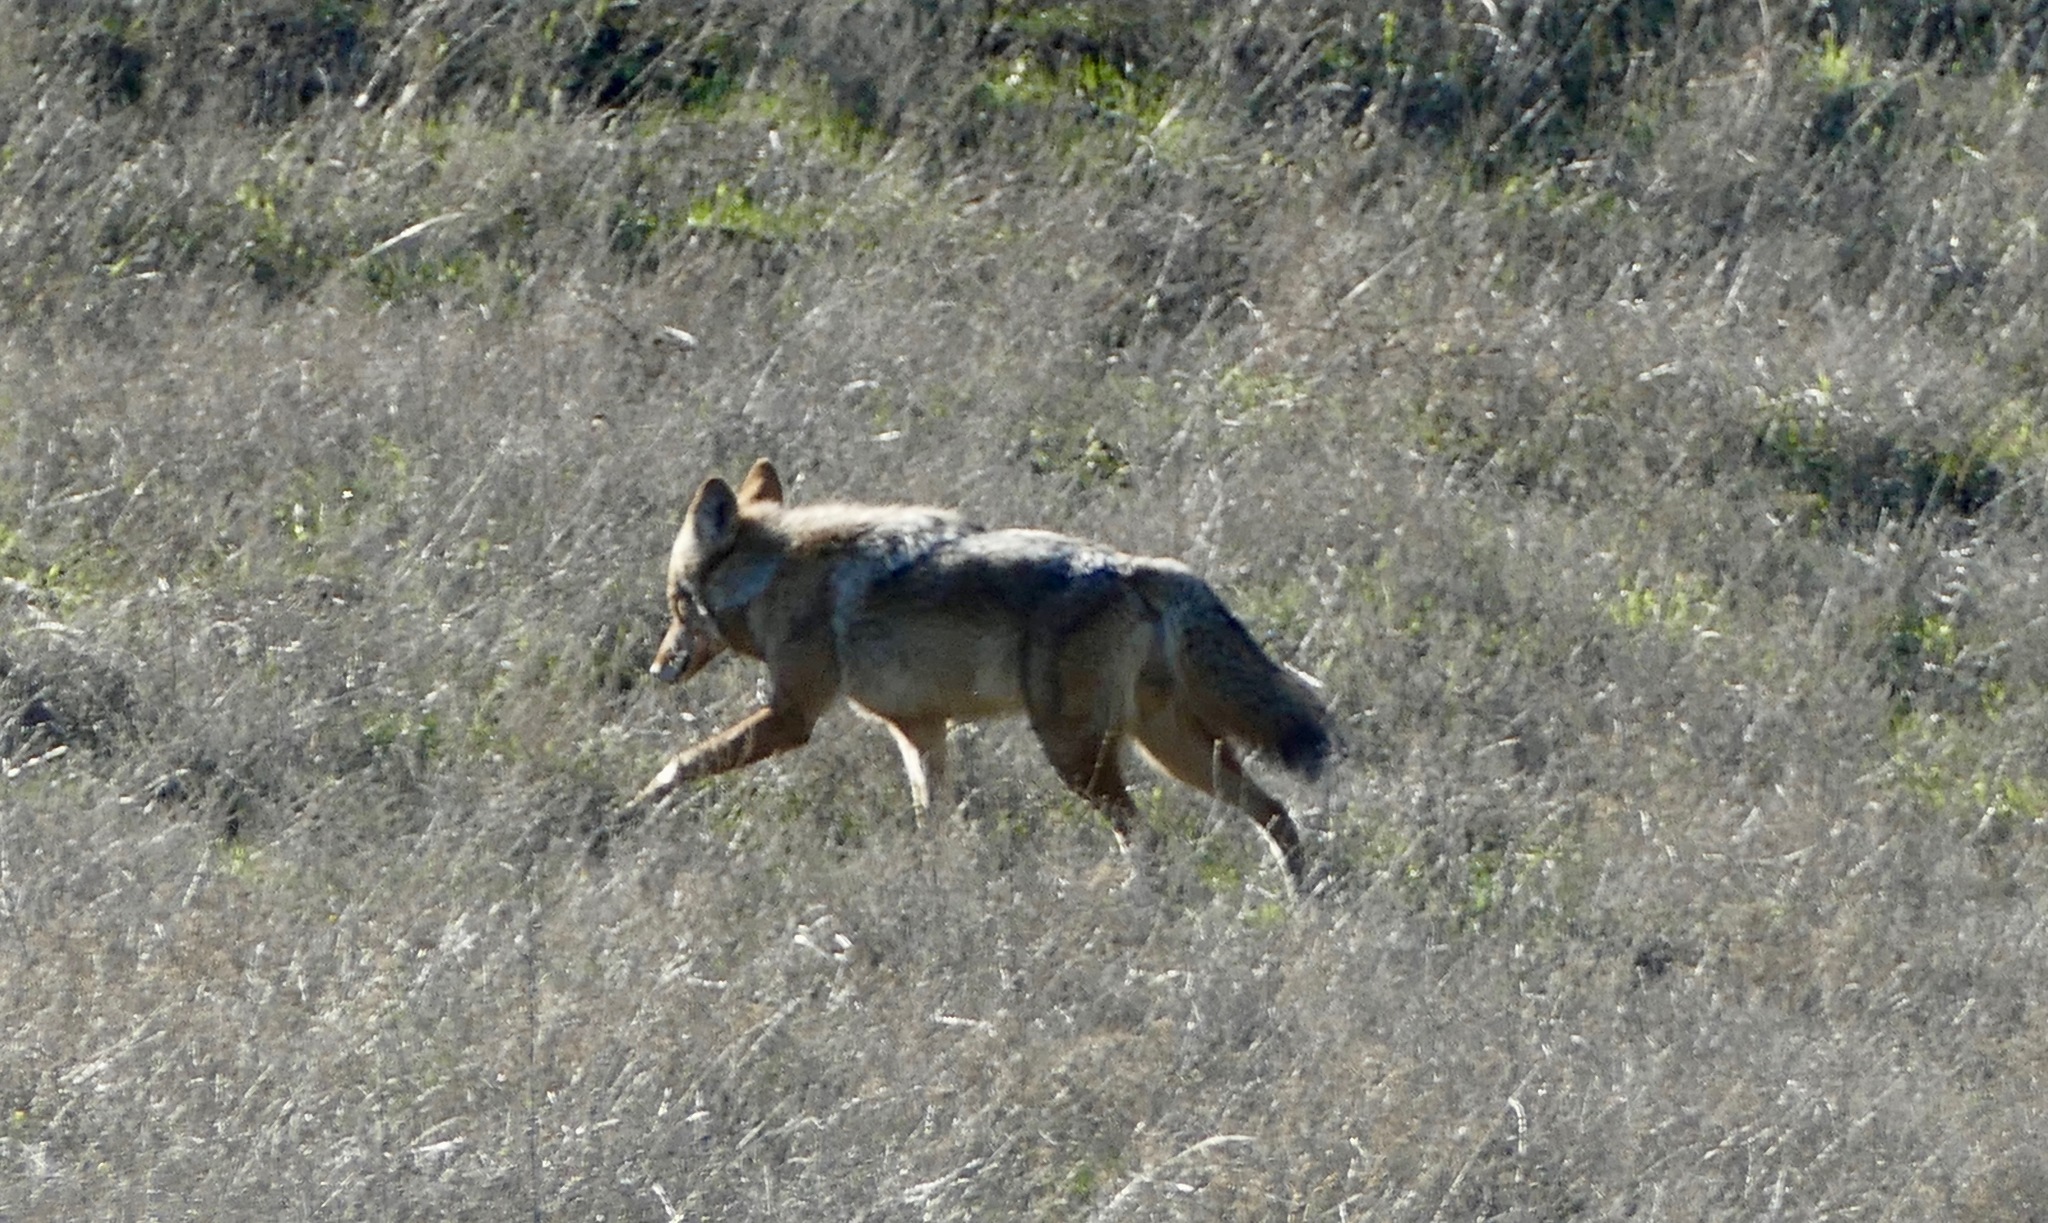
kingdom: Animalia
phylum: Chordata
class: Mammalia
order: Carnivora
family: Canidae
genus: Canis
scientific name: Canis latrans
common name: Coyote
